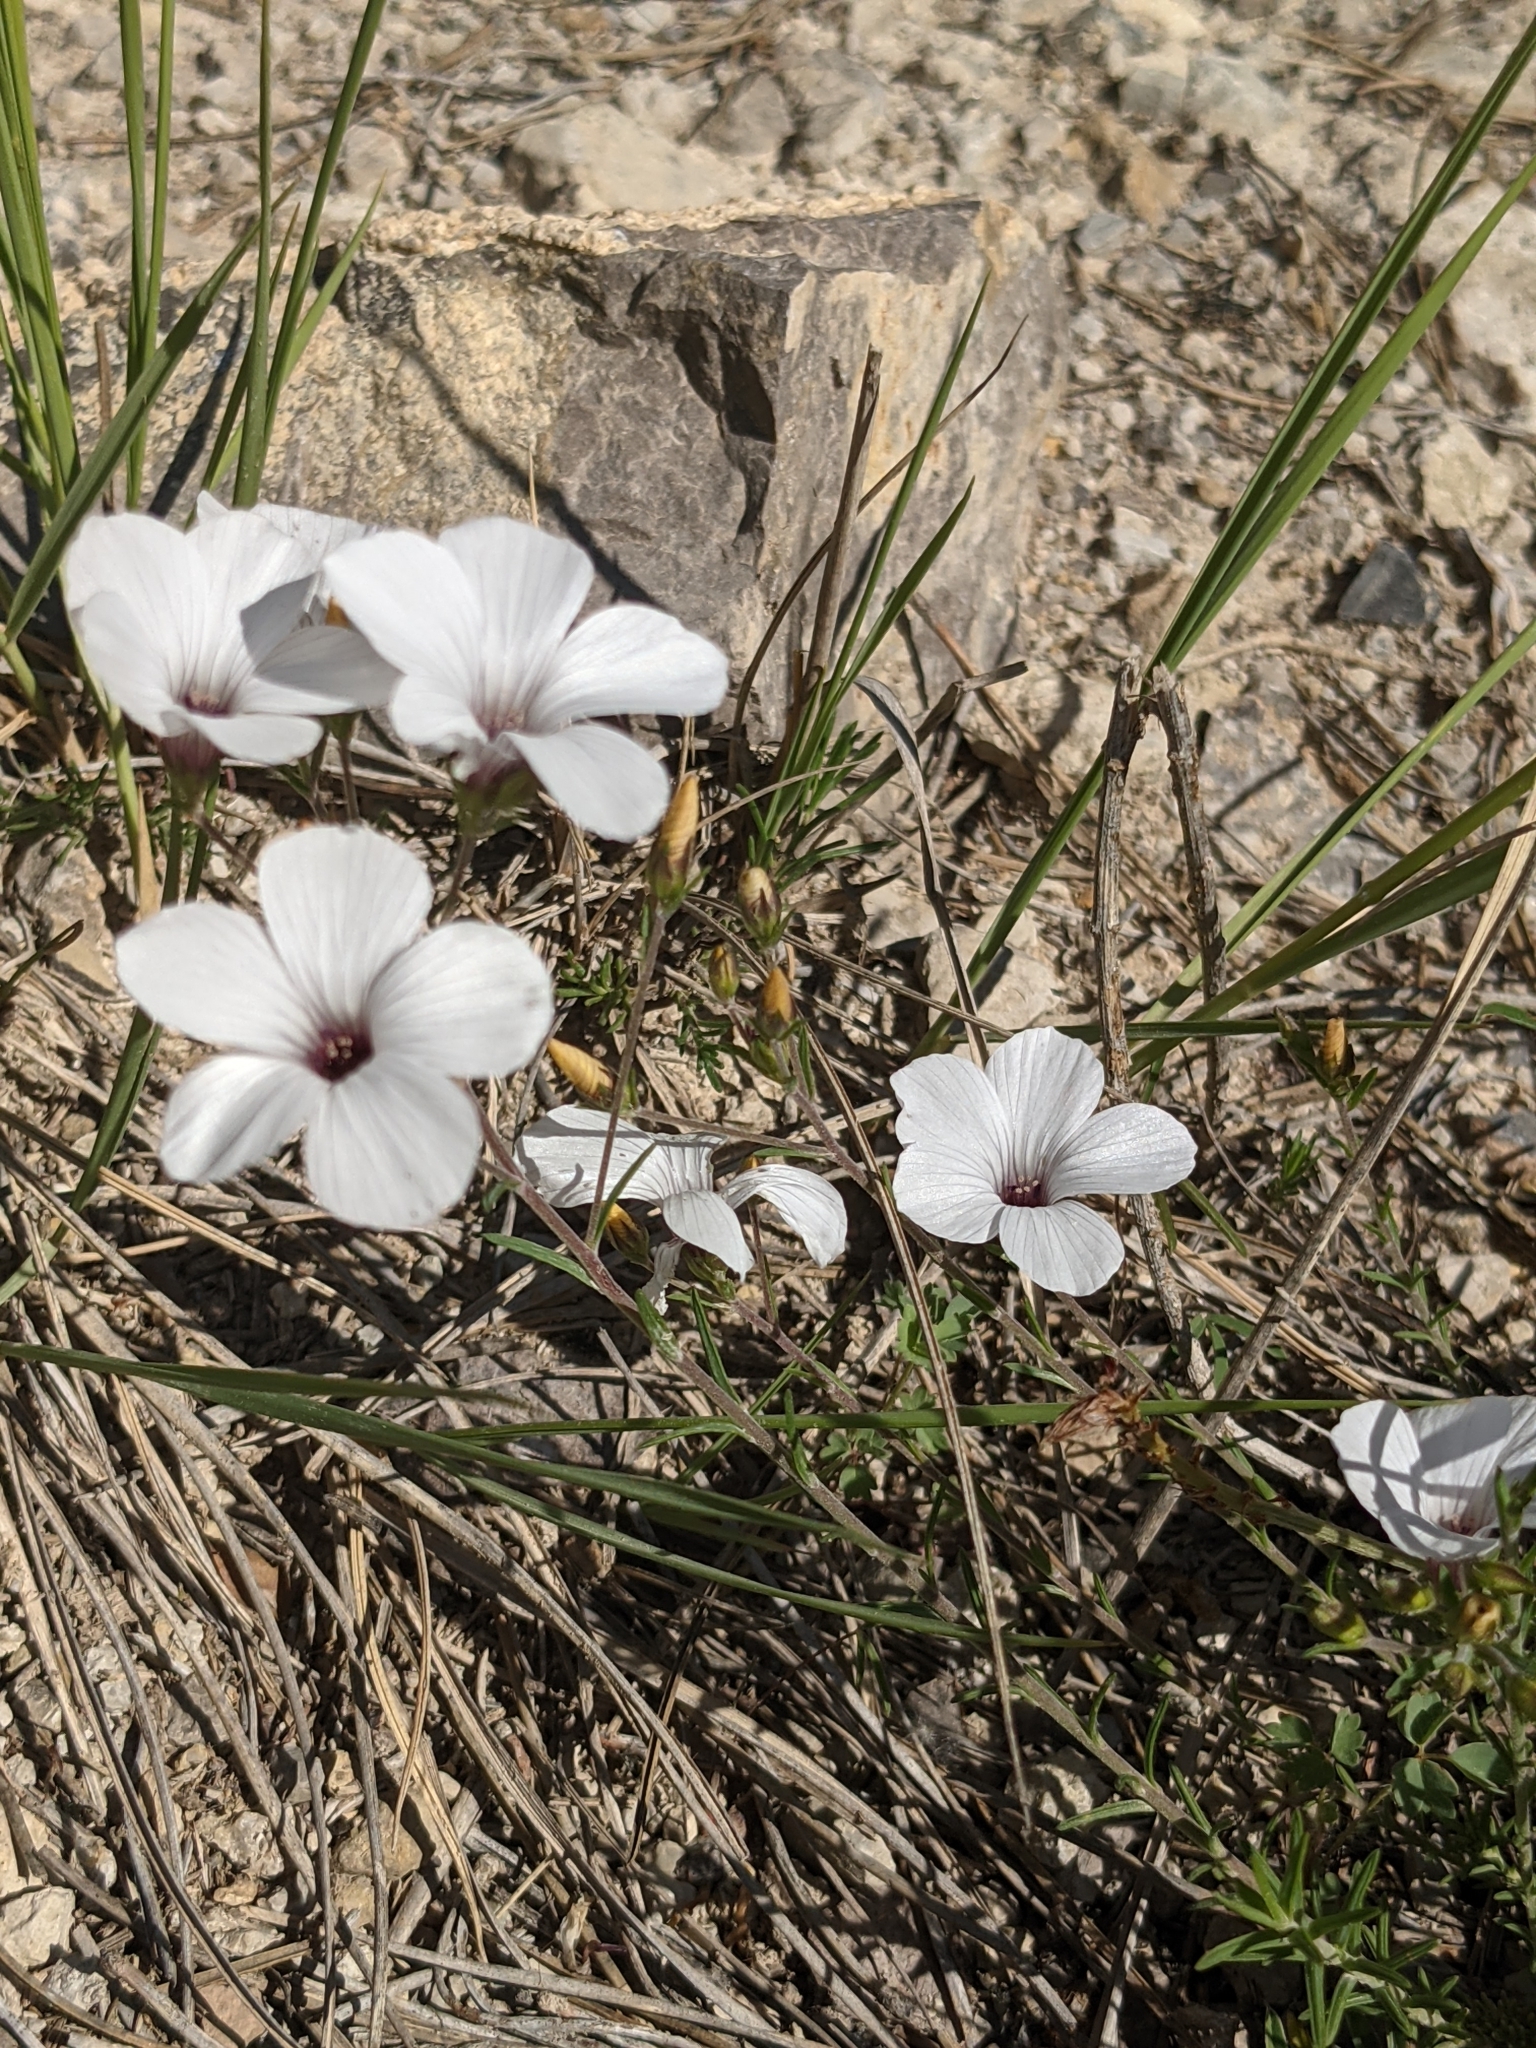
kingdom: Plantae
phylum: Tracheophyta
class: Magnoliopsida
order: Malpighiales
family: Linaceae
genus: Linum
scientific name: Linum suffruticosum
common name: White flax
